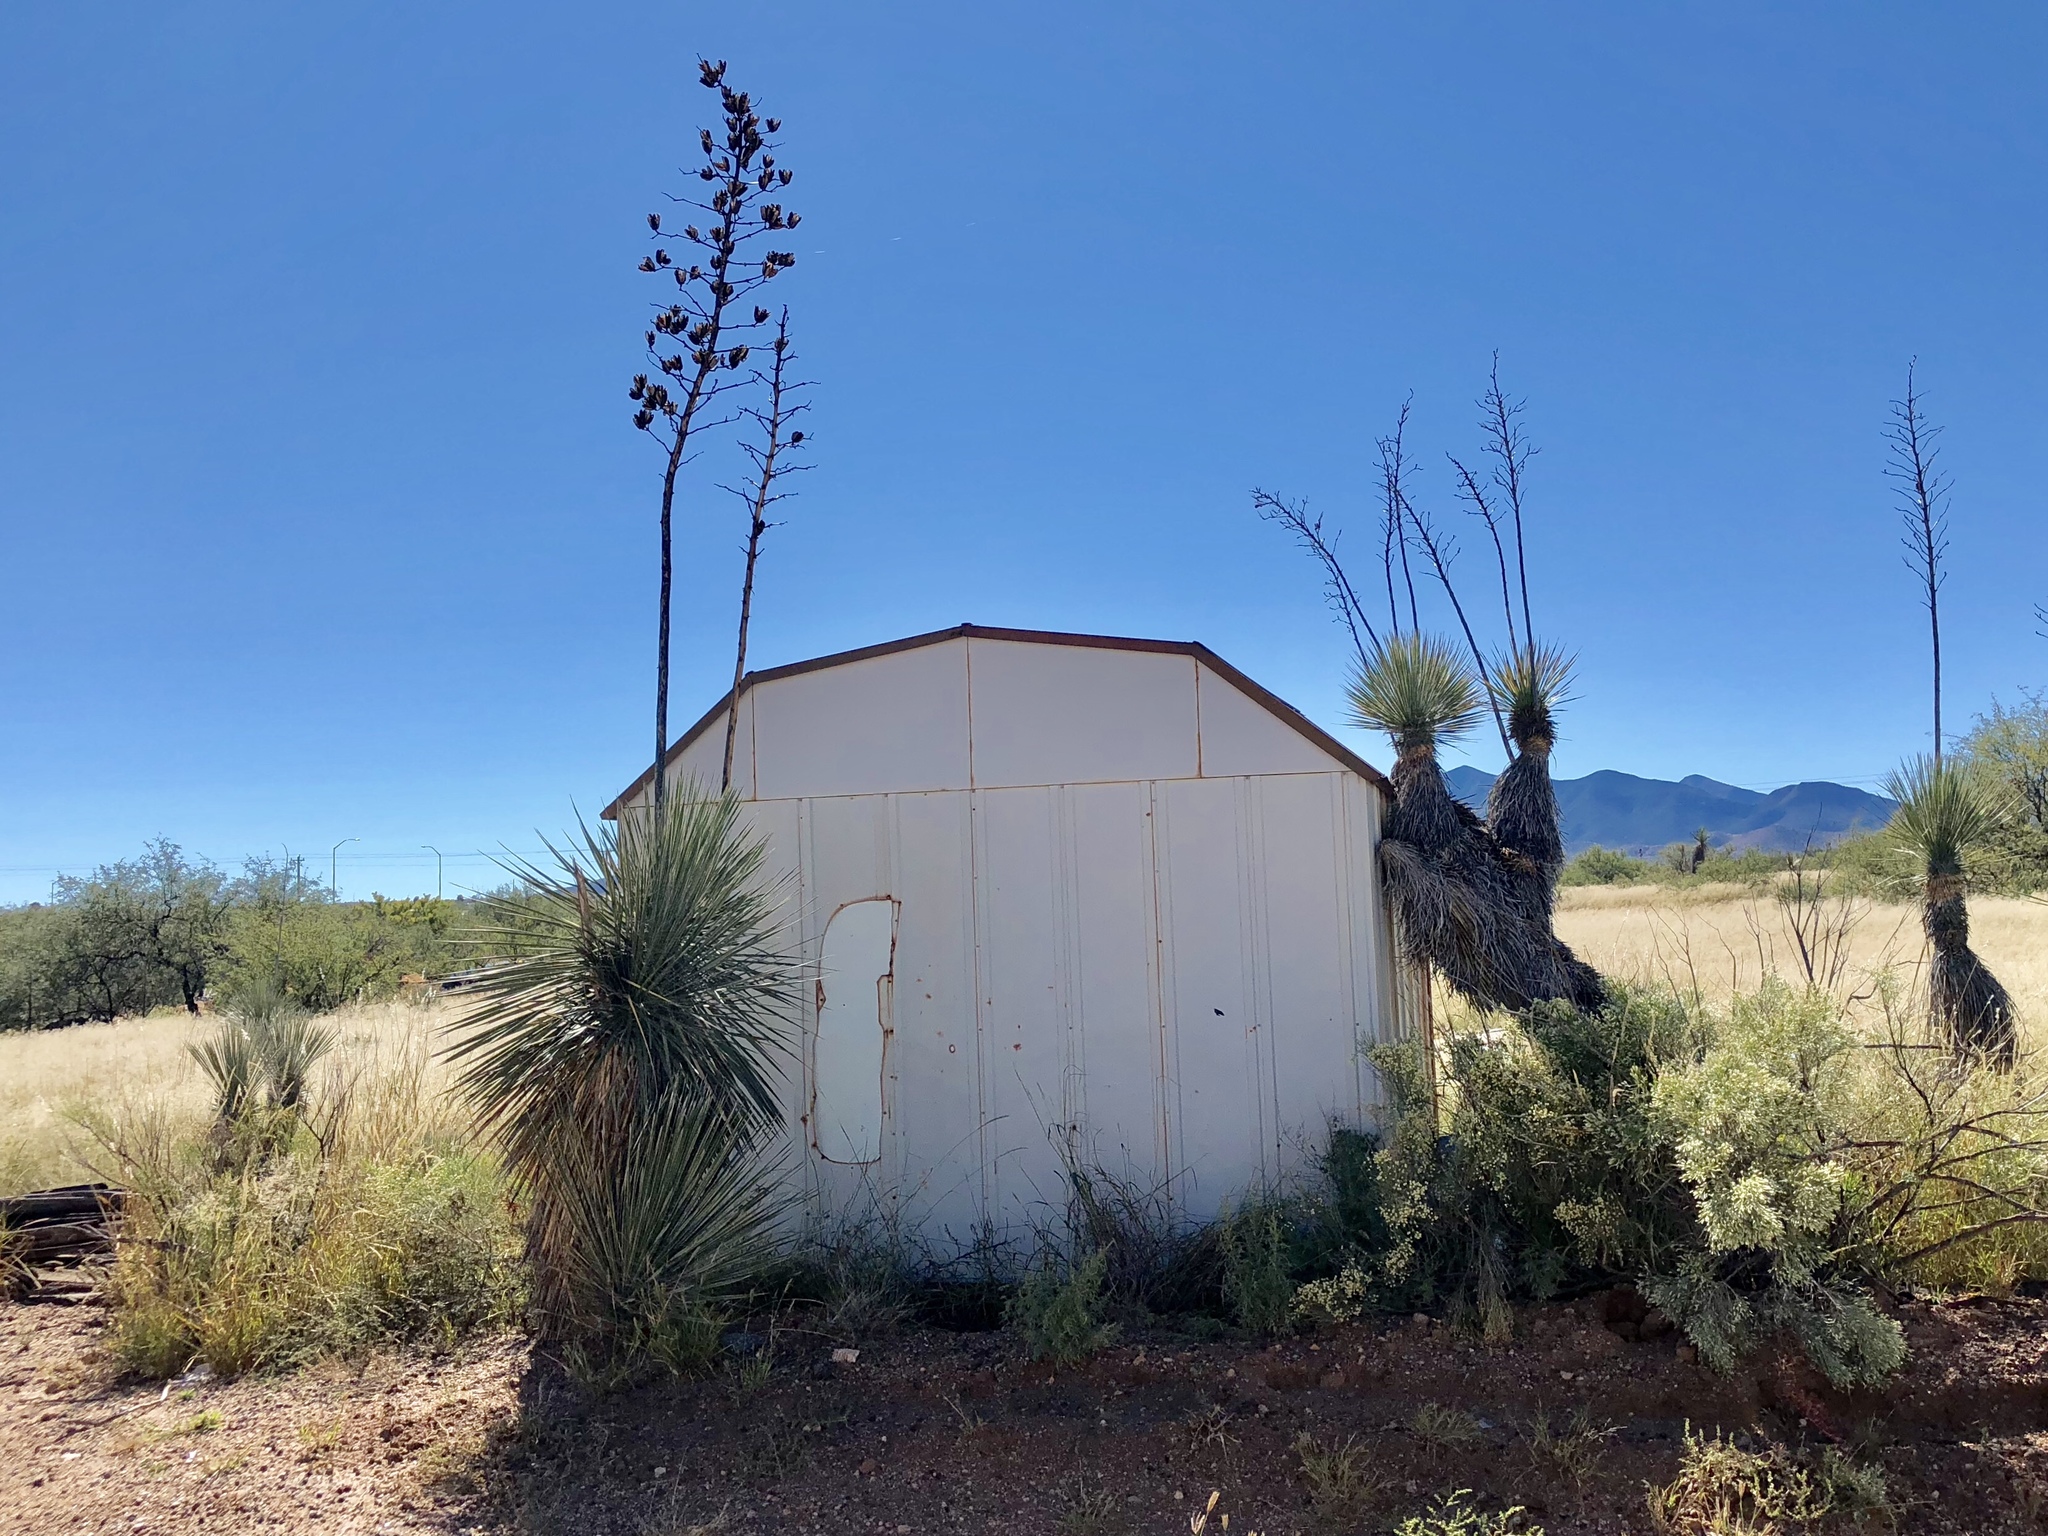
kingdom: Plantae
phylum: Tracheophyta
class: Liliopsida
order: Asparagales
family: Asparagaceae
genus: Yucca
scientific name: Yucca elata
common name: Palmella
